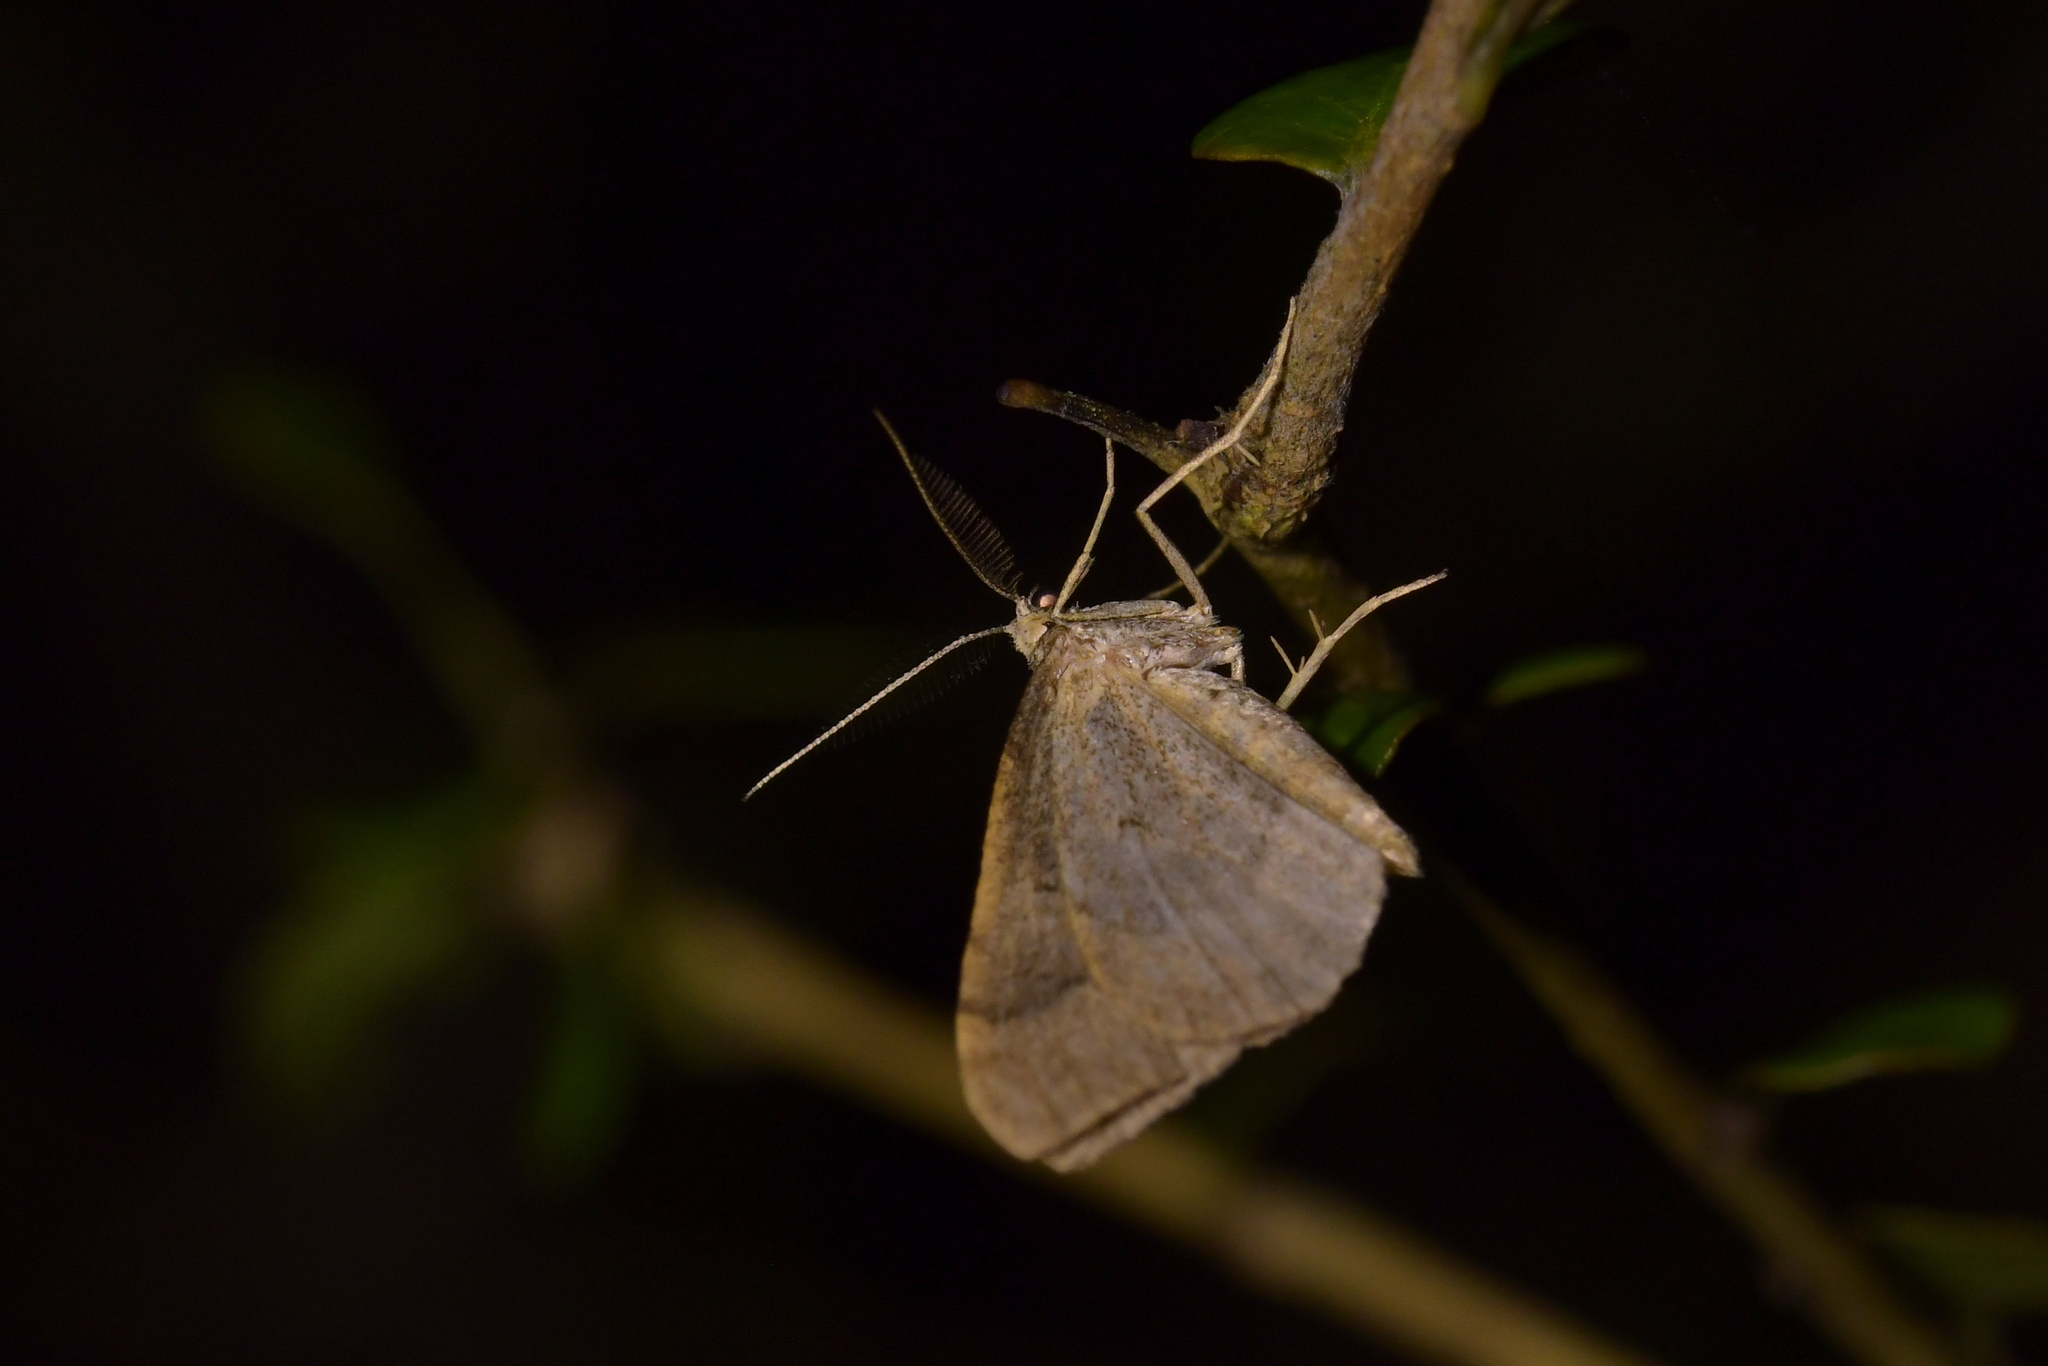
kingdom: Animalia
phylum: Arthropoda
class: Insecta
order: Lepidoptera
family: Geometridae
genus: Epyaxa
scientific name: Epyaxa rosearia
